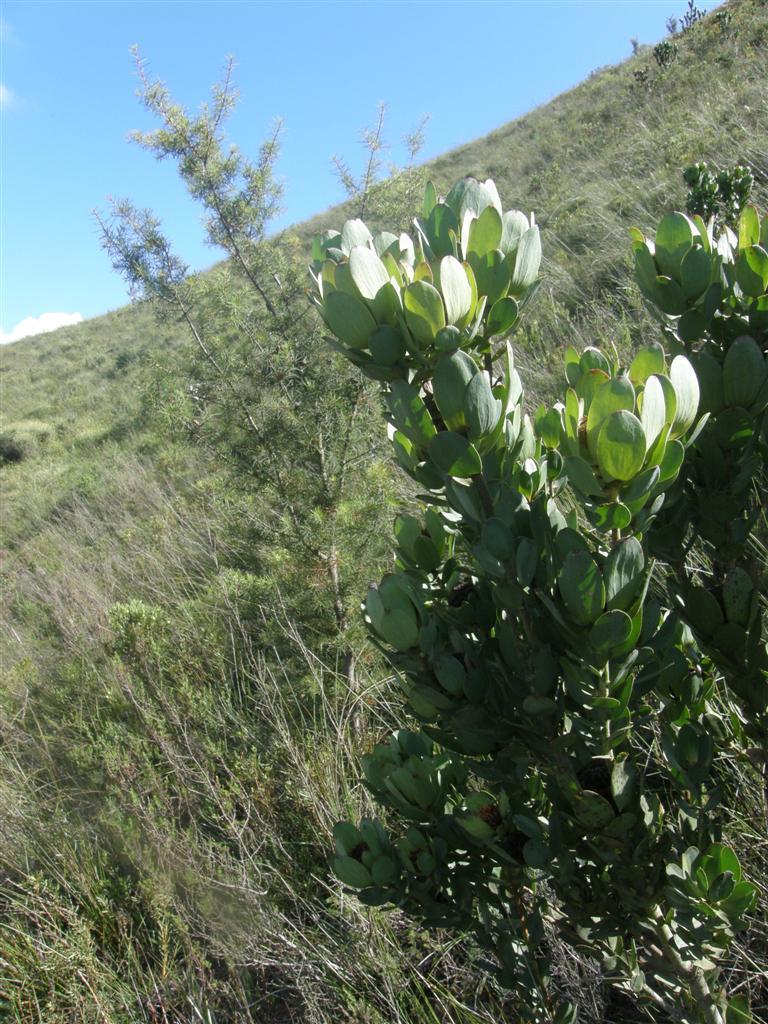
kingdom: Plantae
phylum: Tracheophyta
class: Magnoliopsida
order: Proteales
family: Proteaceae
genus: Leucadendron
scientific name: Leucadendron elimense
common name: Elim conebush
